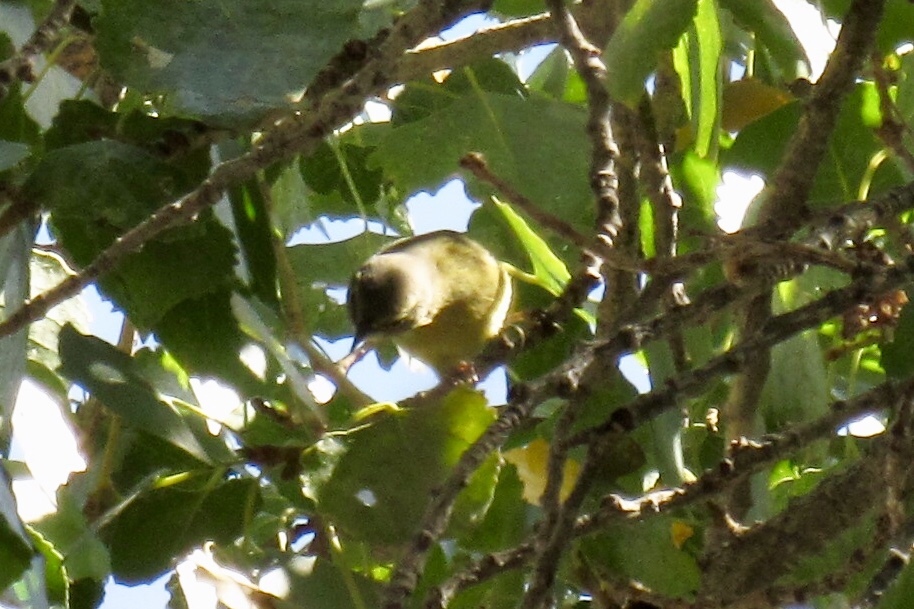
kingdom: Animalia
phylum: Chordata
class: Aves
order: Passeriformes
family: Parulidae
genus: Leiothlypis
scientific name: Leiothlypis celata
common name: Orange-crowned warbler
